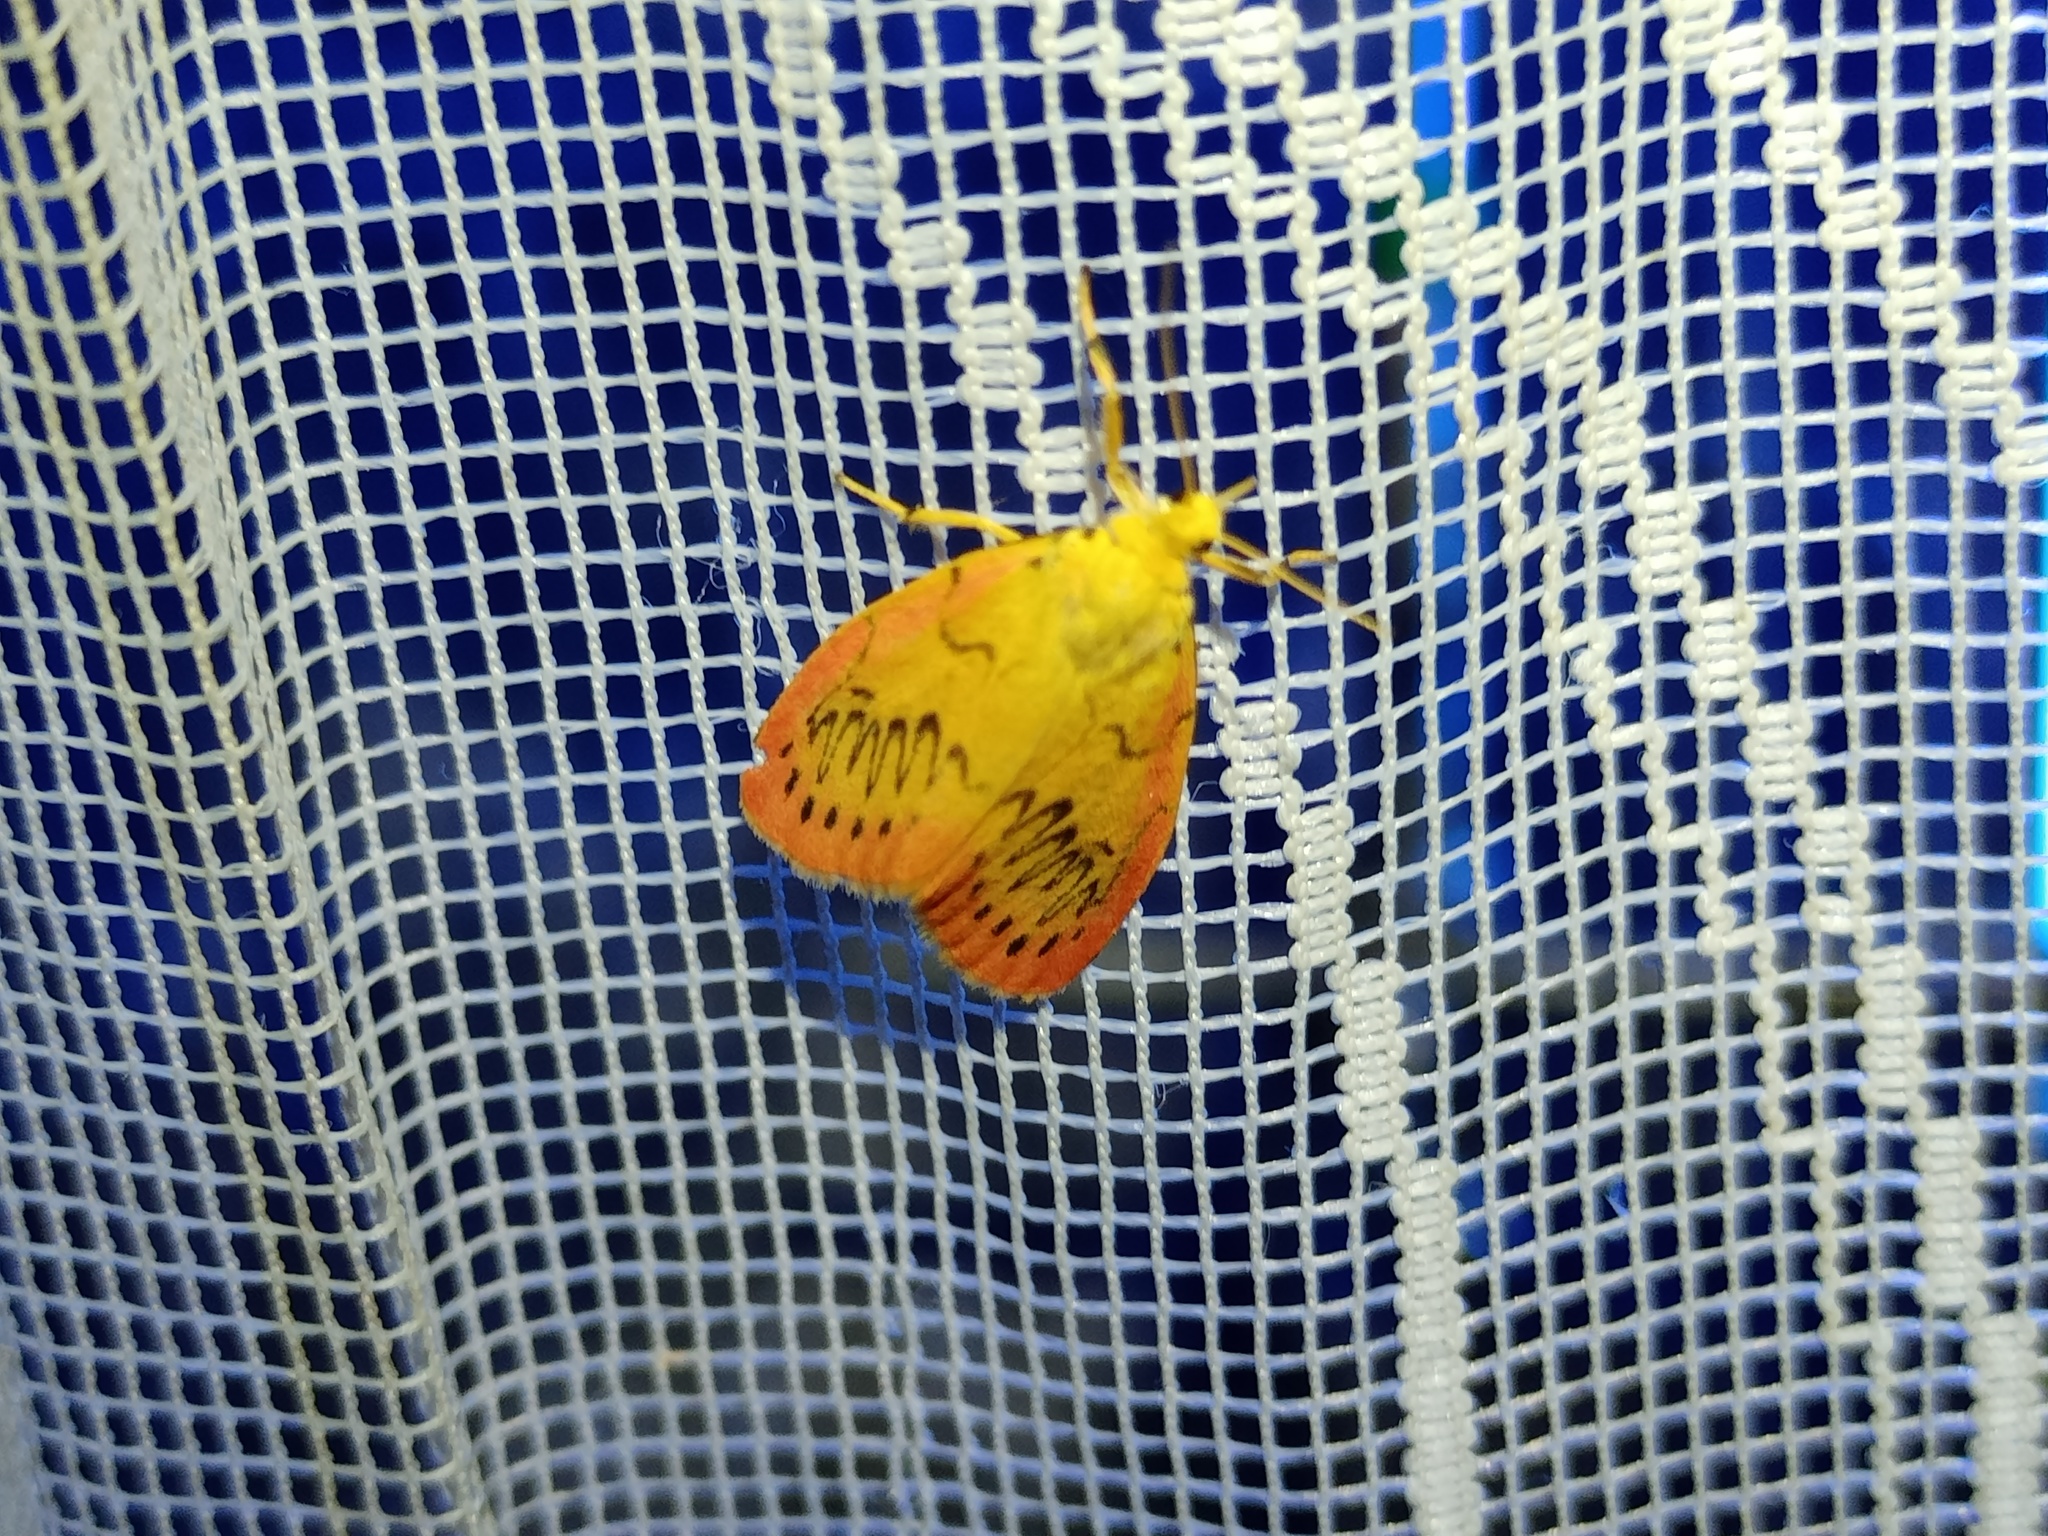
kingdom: Animalia
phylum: Arthropoda
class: Insecta
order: Lepidoptera
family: Erebidae
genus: Miltochrista
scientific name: Miltochrista miniata
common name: Rosy footman
